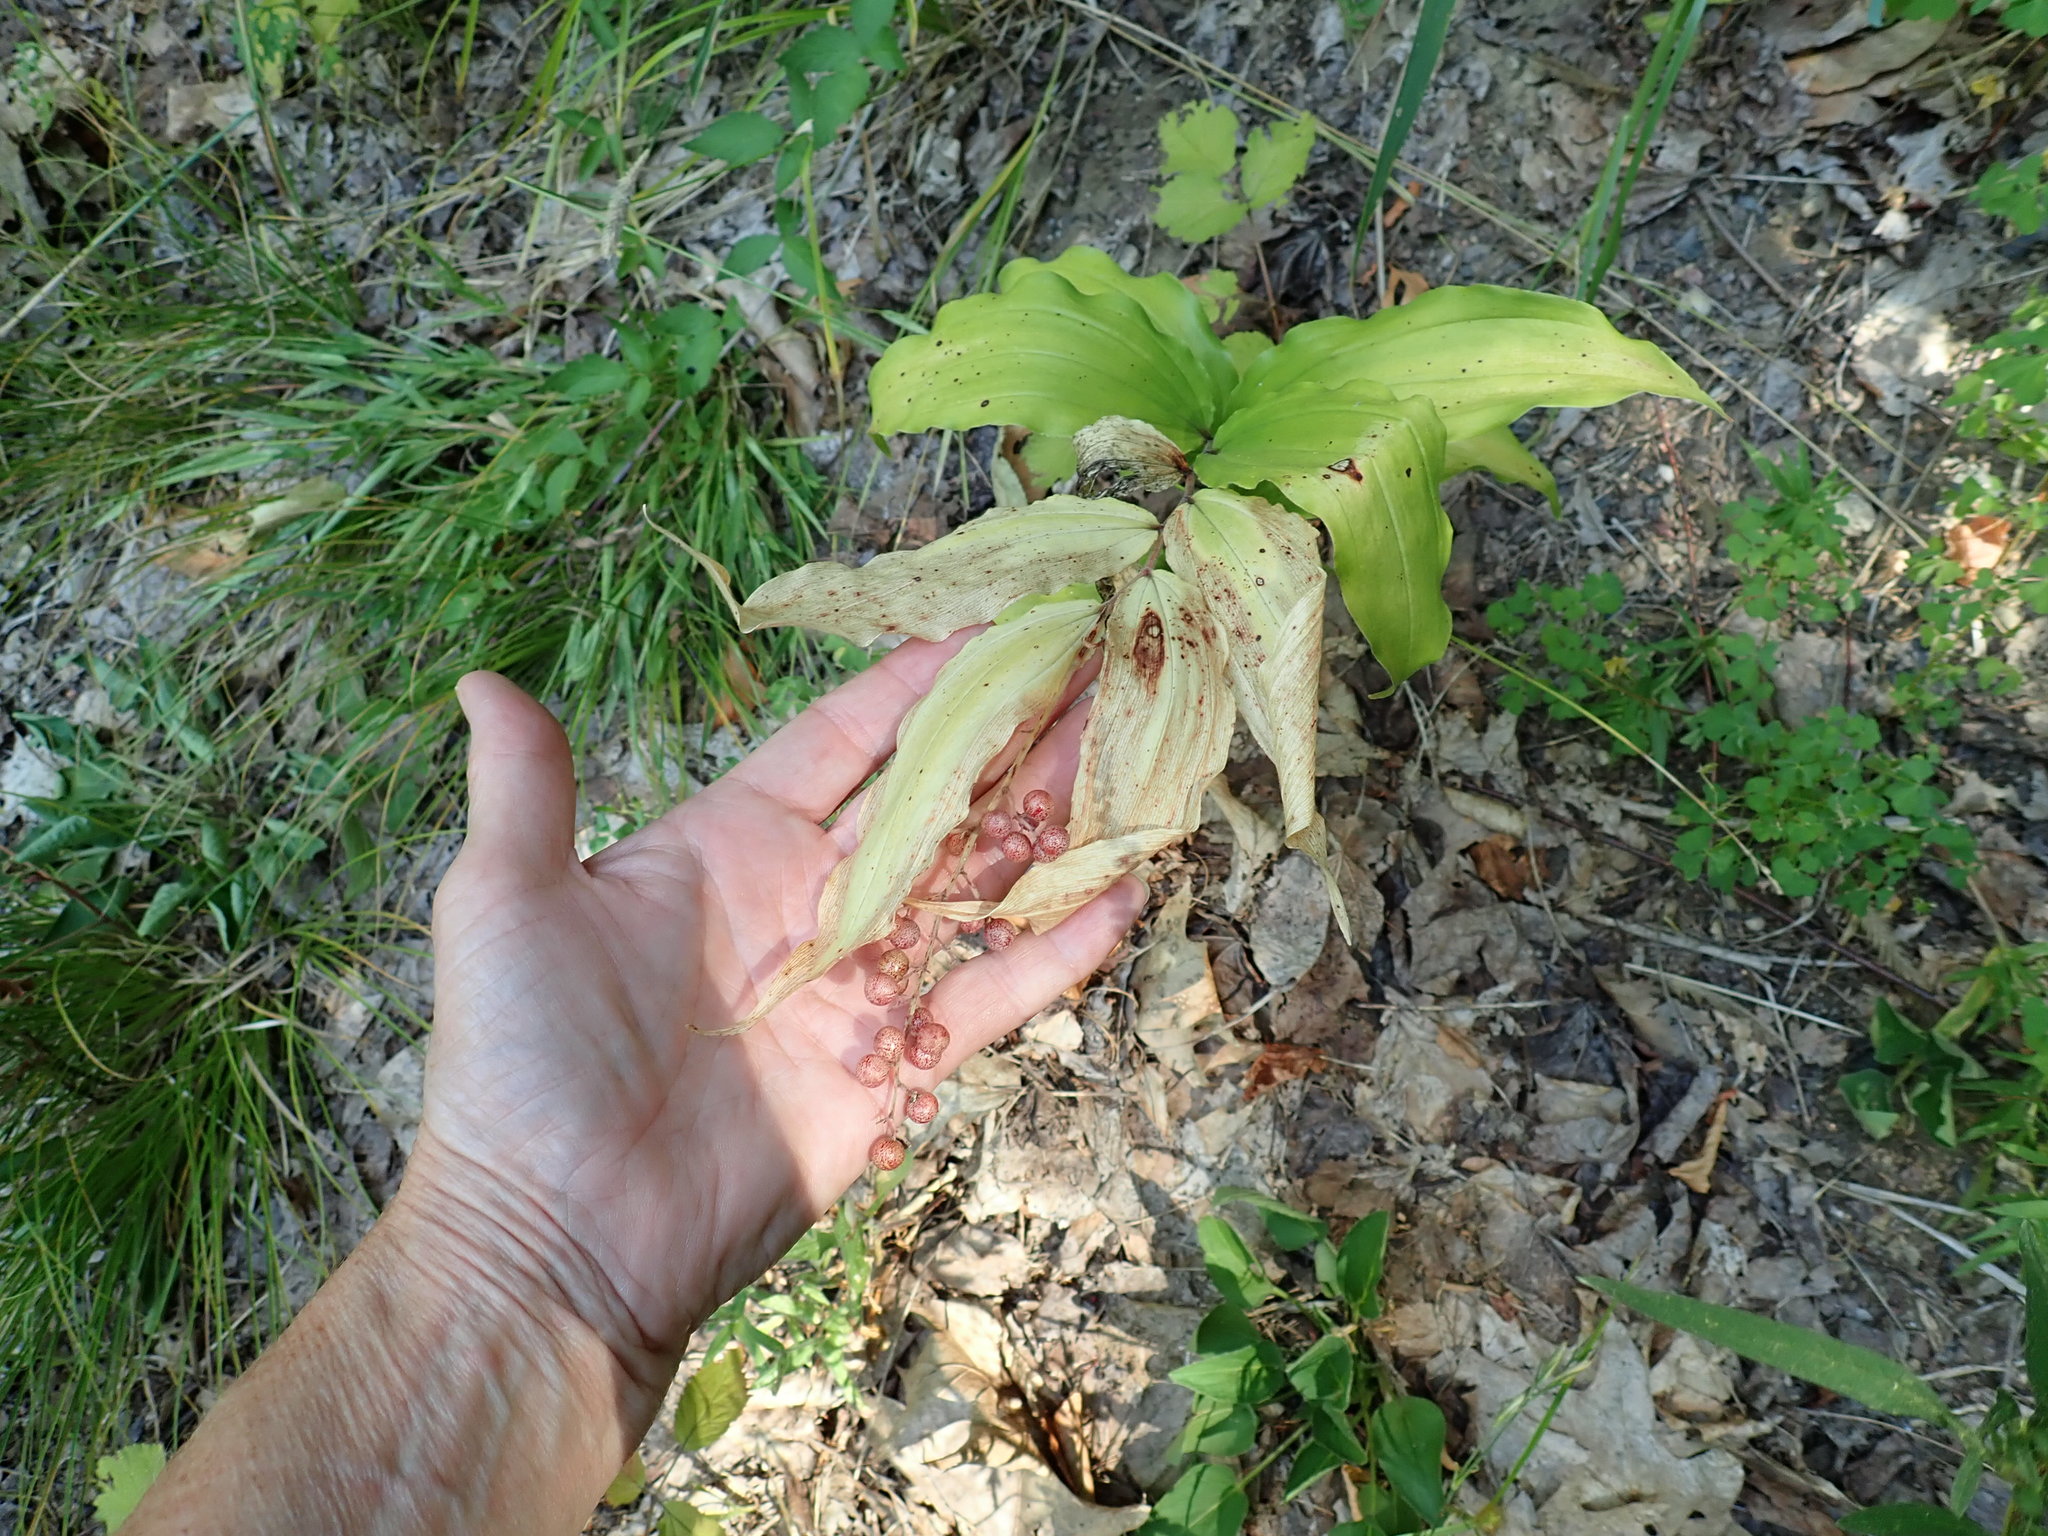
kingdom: Plantae
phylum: Tracheophyta
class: Liliopsida
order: Asparagales
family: Asparagaceae
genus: Maianthemum
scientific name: Maianthemum racemosum
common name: False spikenard
